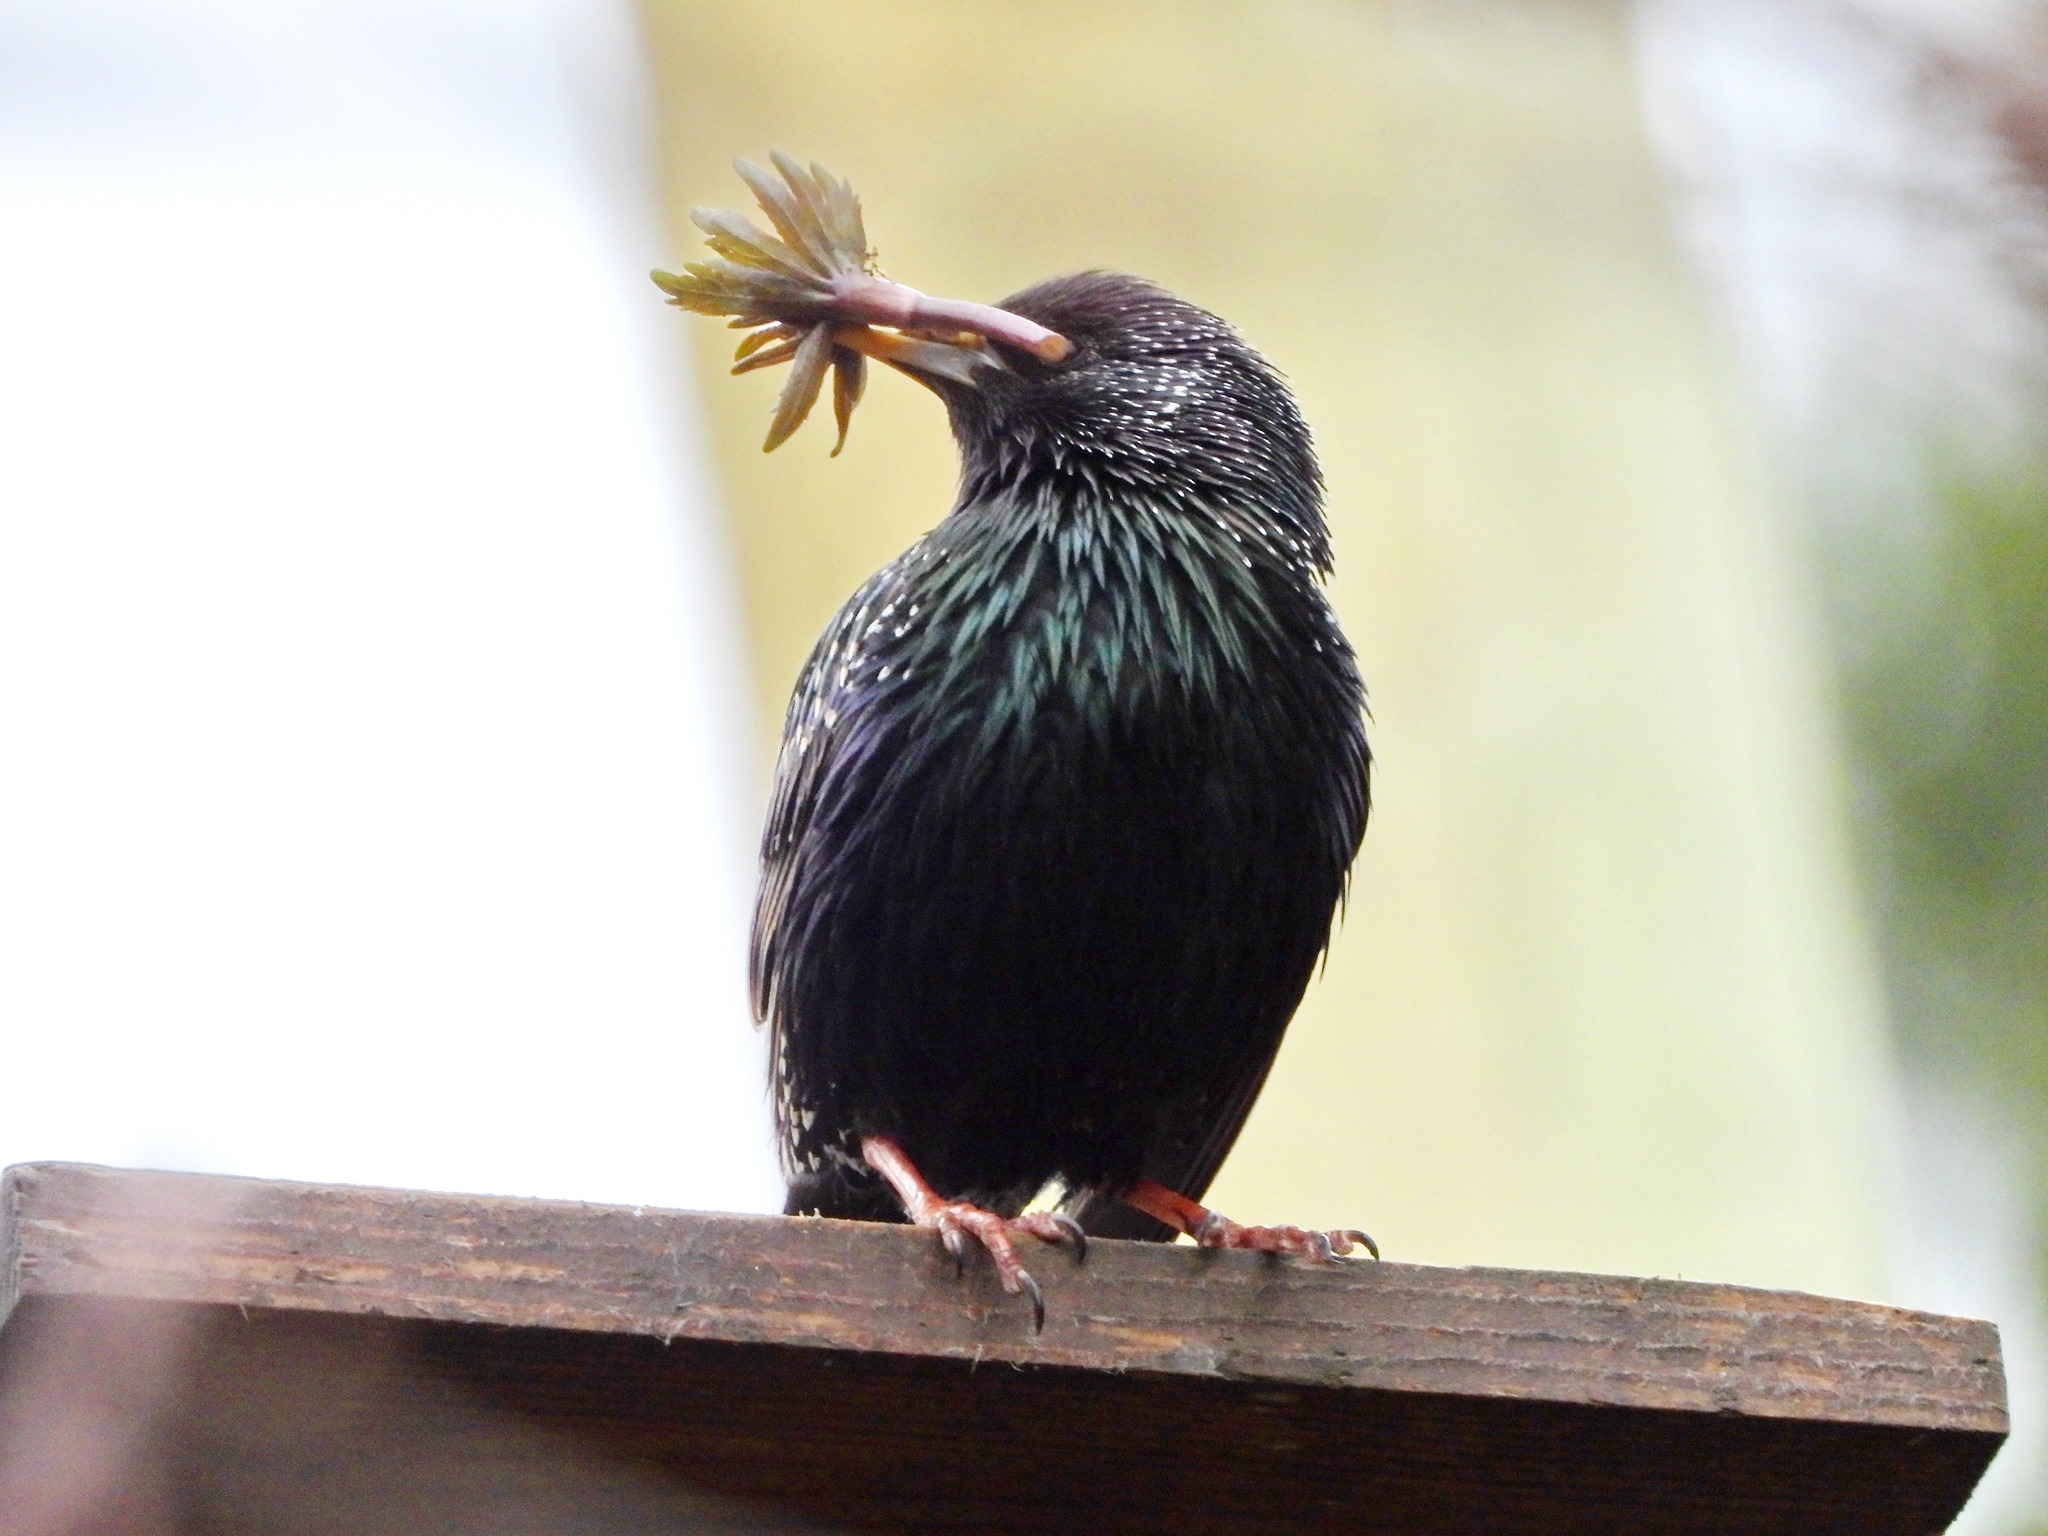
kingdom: Animalia
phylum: Chordata
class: Aves
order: Passeriformes
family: Sturnidae
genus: Sturnus
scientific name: Sturnus vulgaris
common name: Common starling
